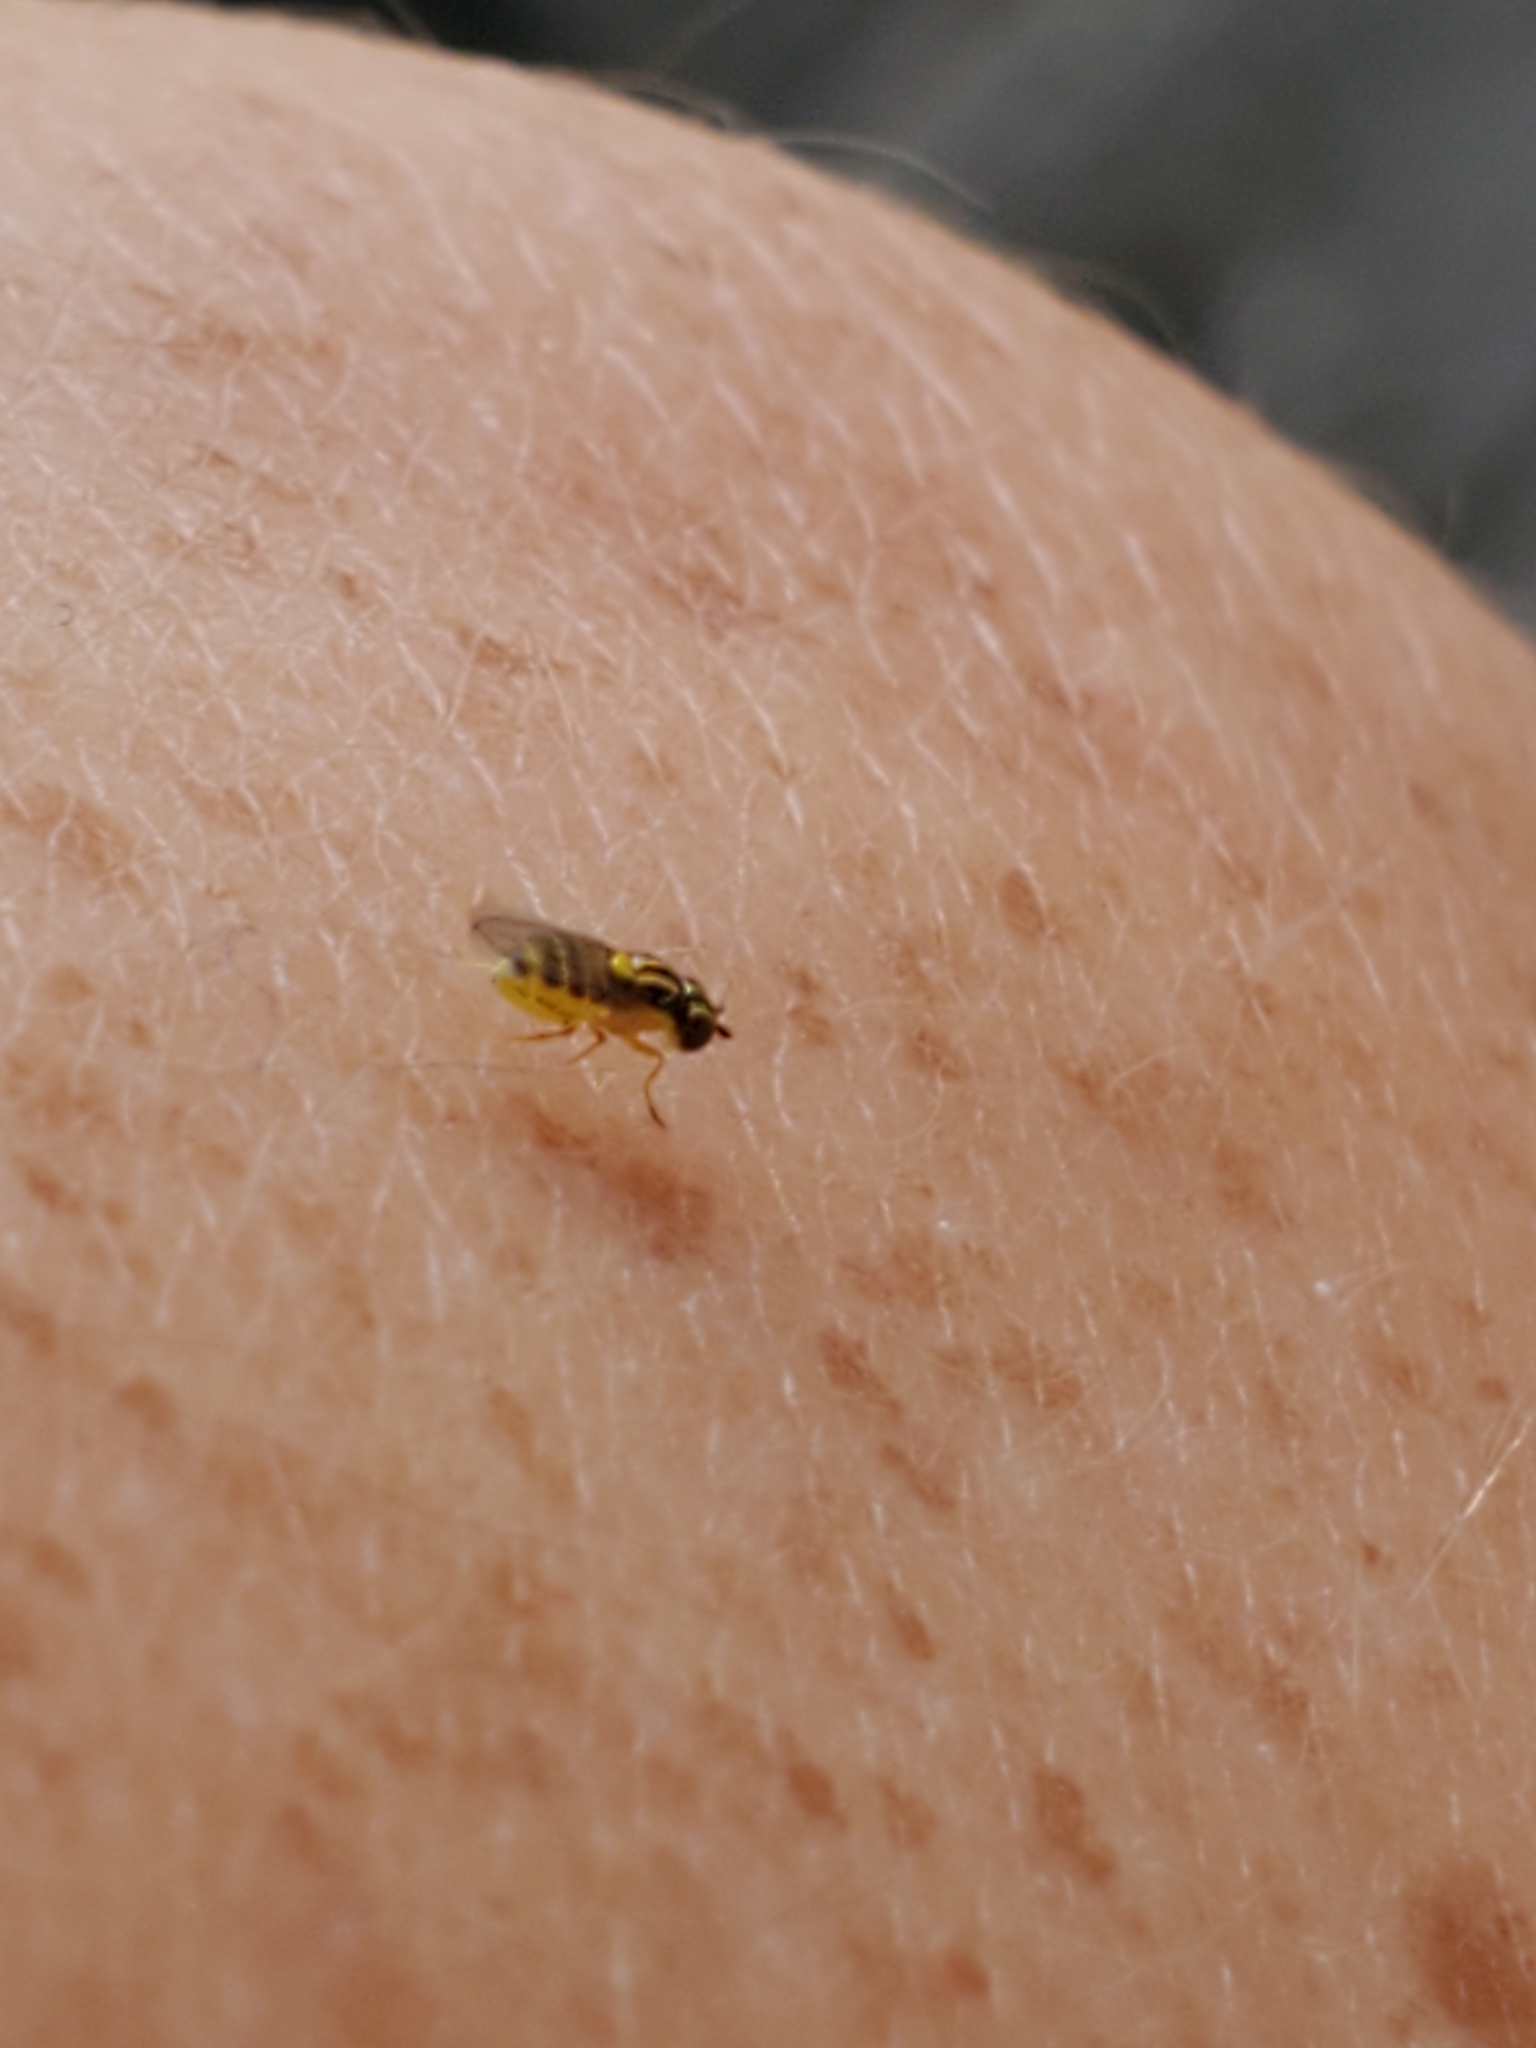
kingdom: Animalia
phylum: Arthropoda
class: Insecta
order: Diptera
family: Chloropidae
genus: Thaumatomyia
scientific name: Thaumatomyia glabra
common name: Chloropid fly
